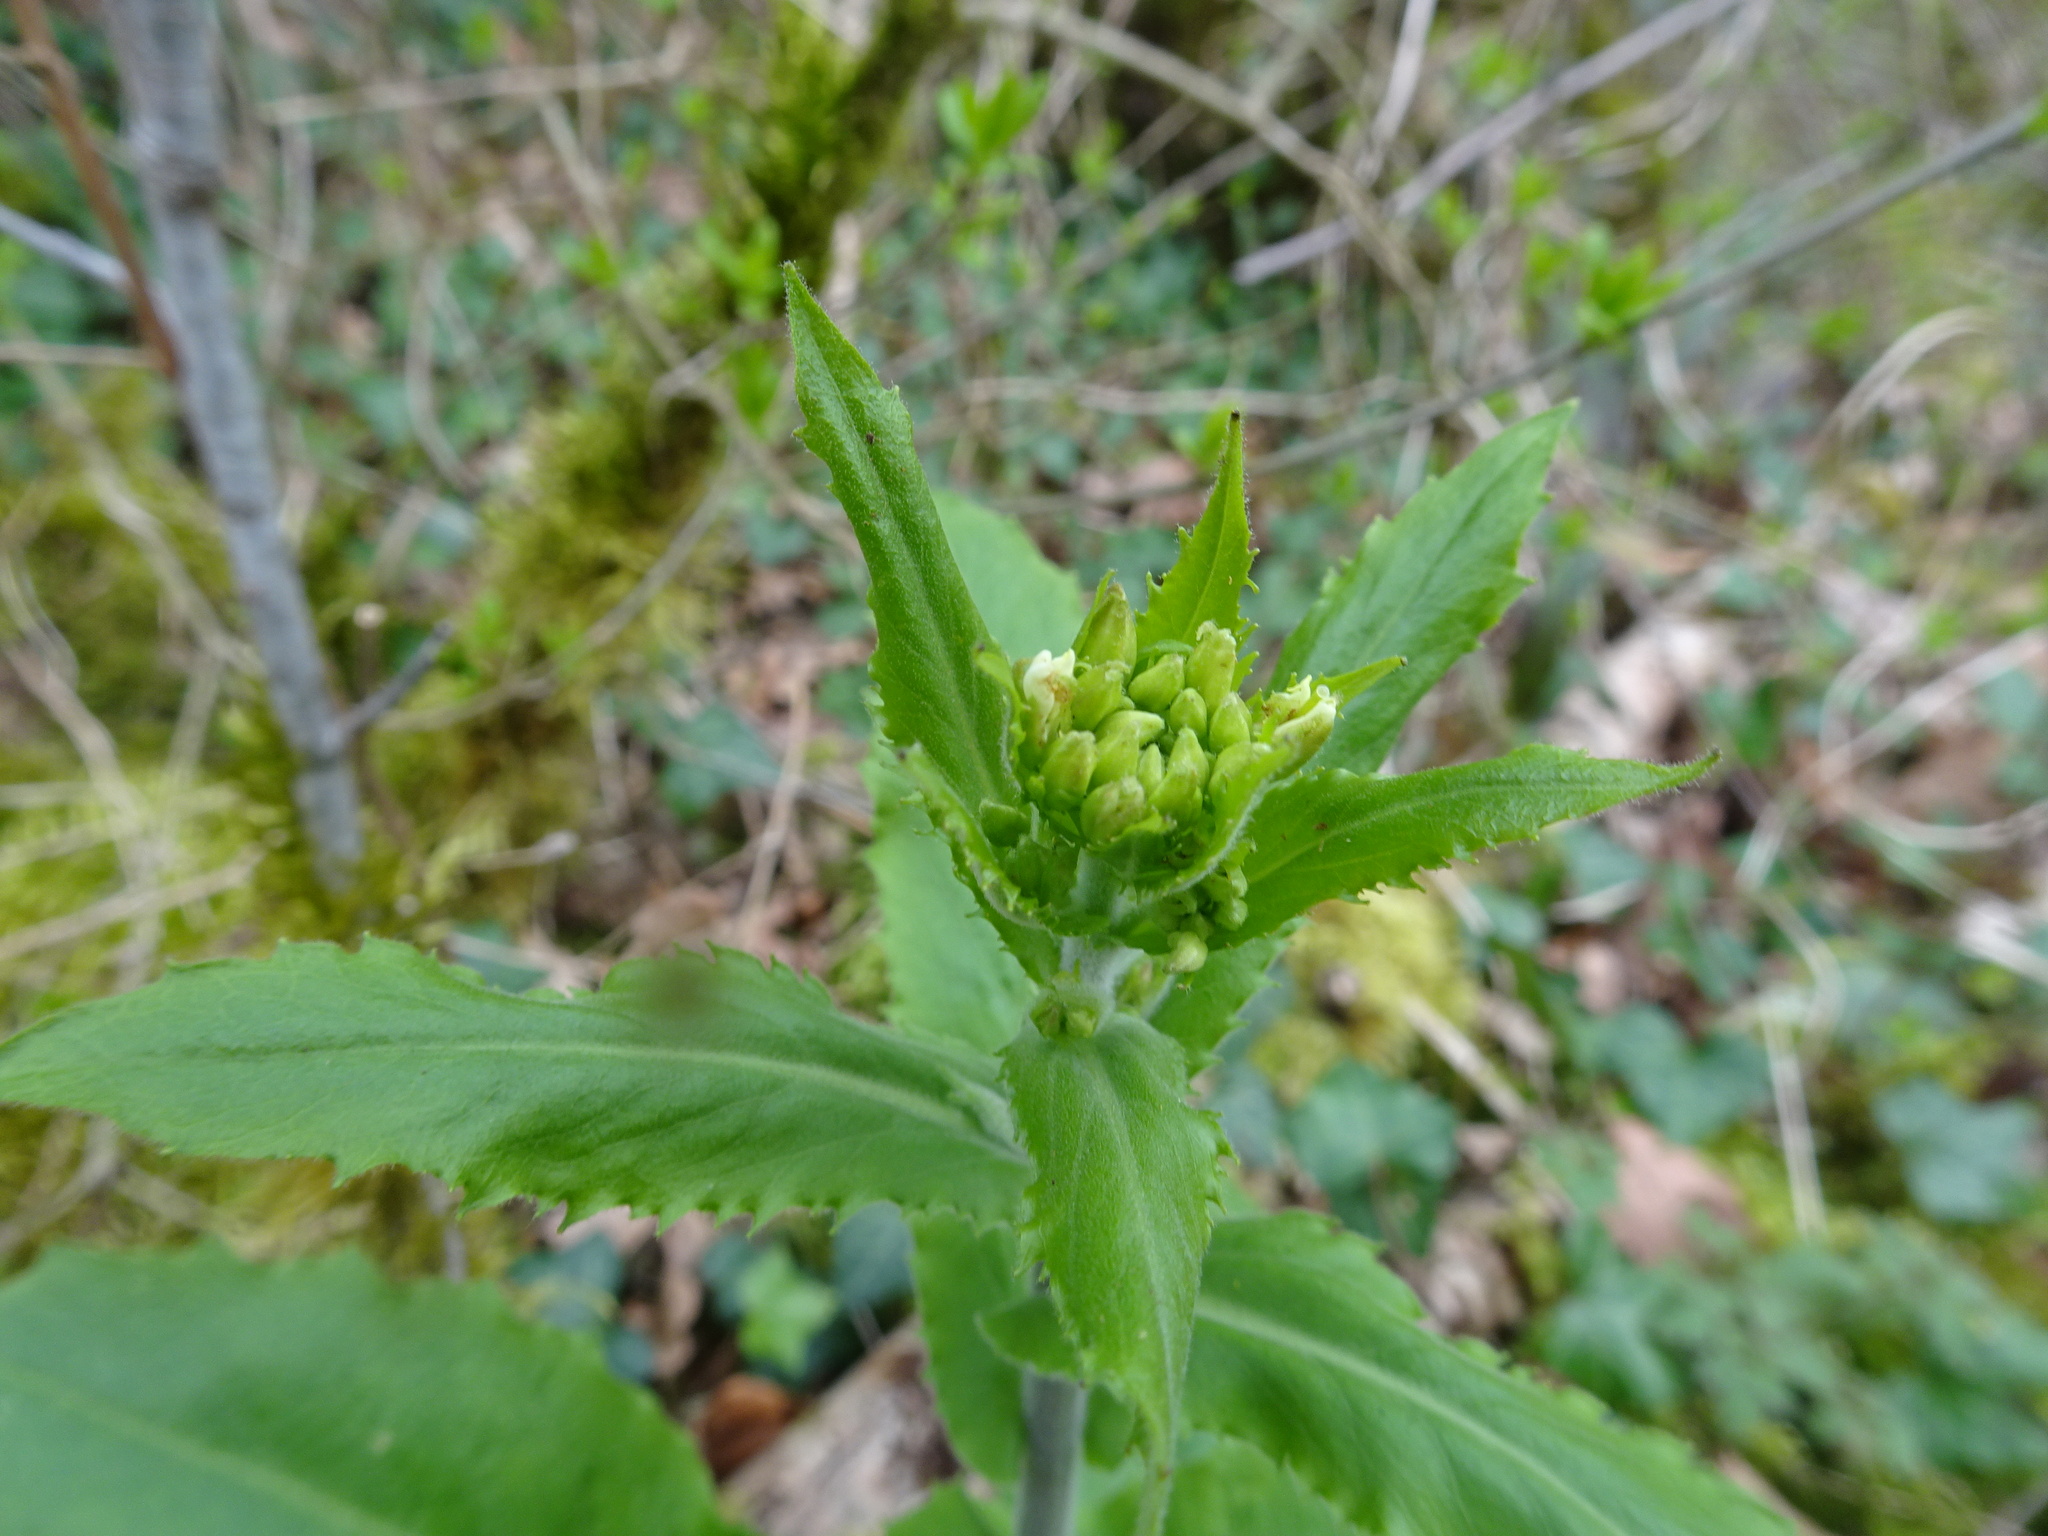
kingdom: Plantae
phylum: Tracheophyta
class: Magnoliopsida
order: Brassicales
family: Brassicaceae
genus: Pseudoturritis
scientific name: Pseudoturritis turrita
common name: Tower cress
